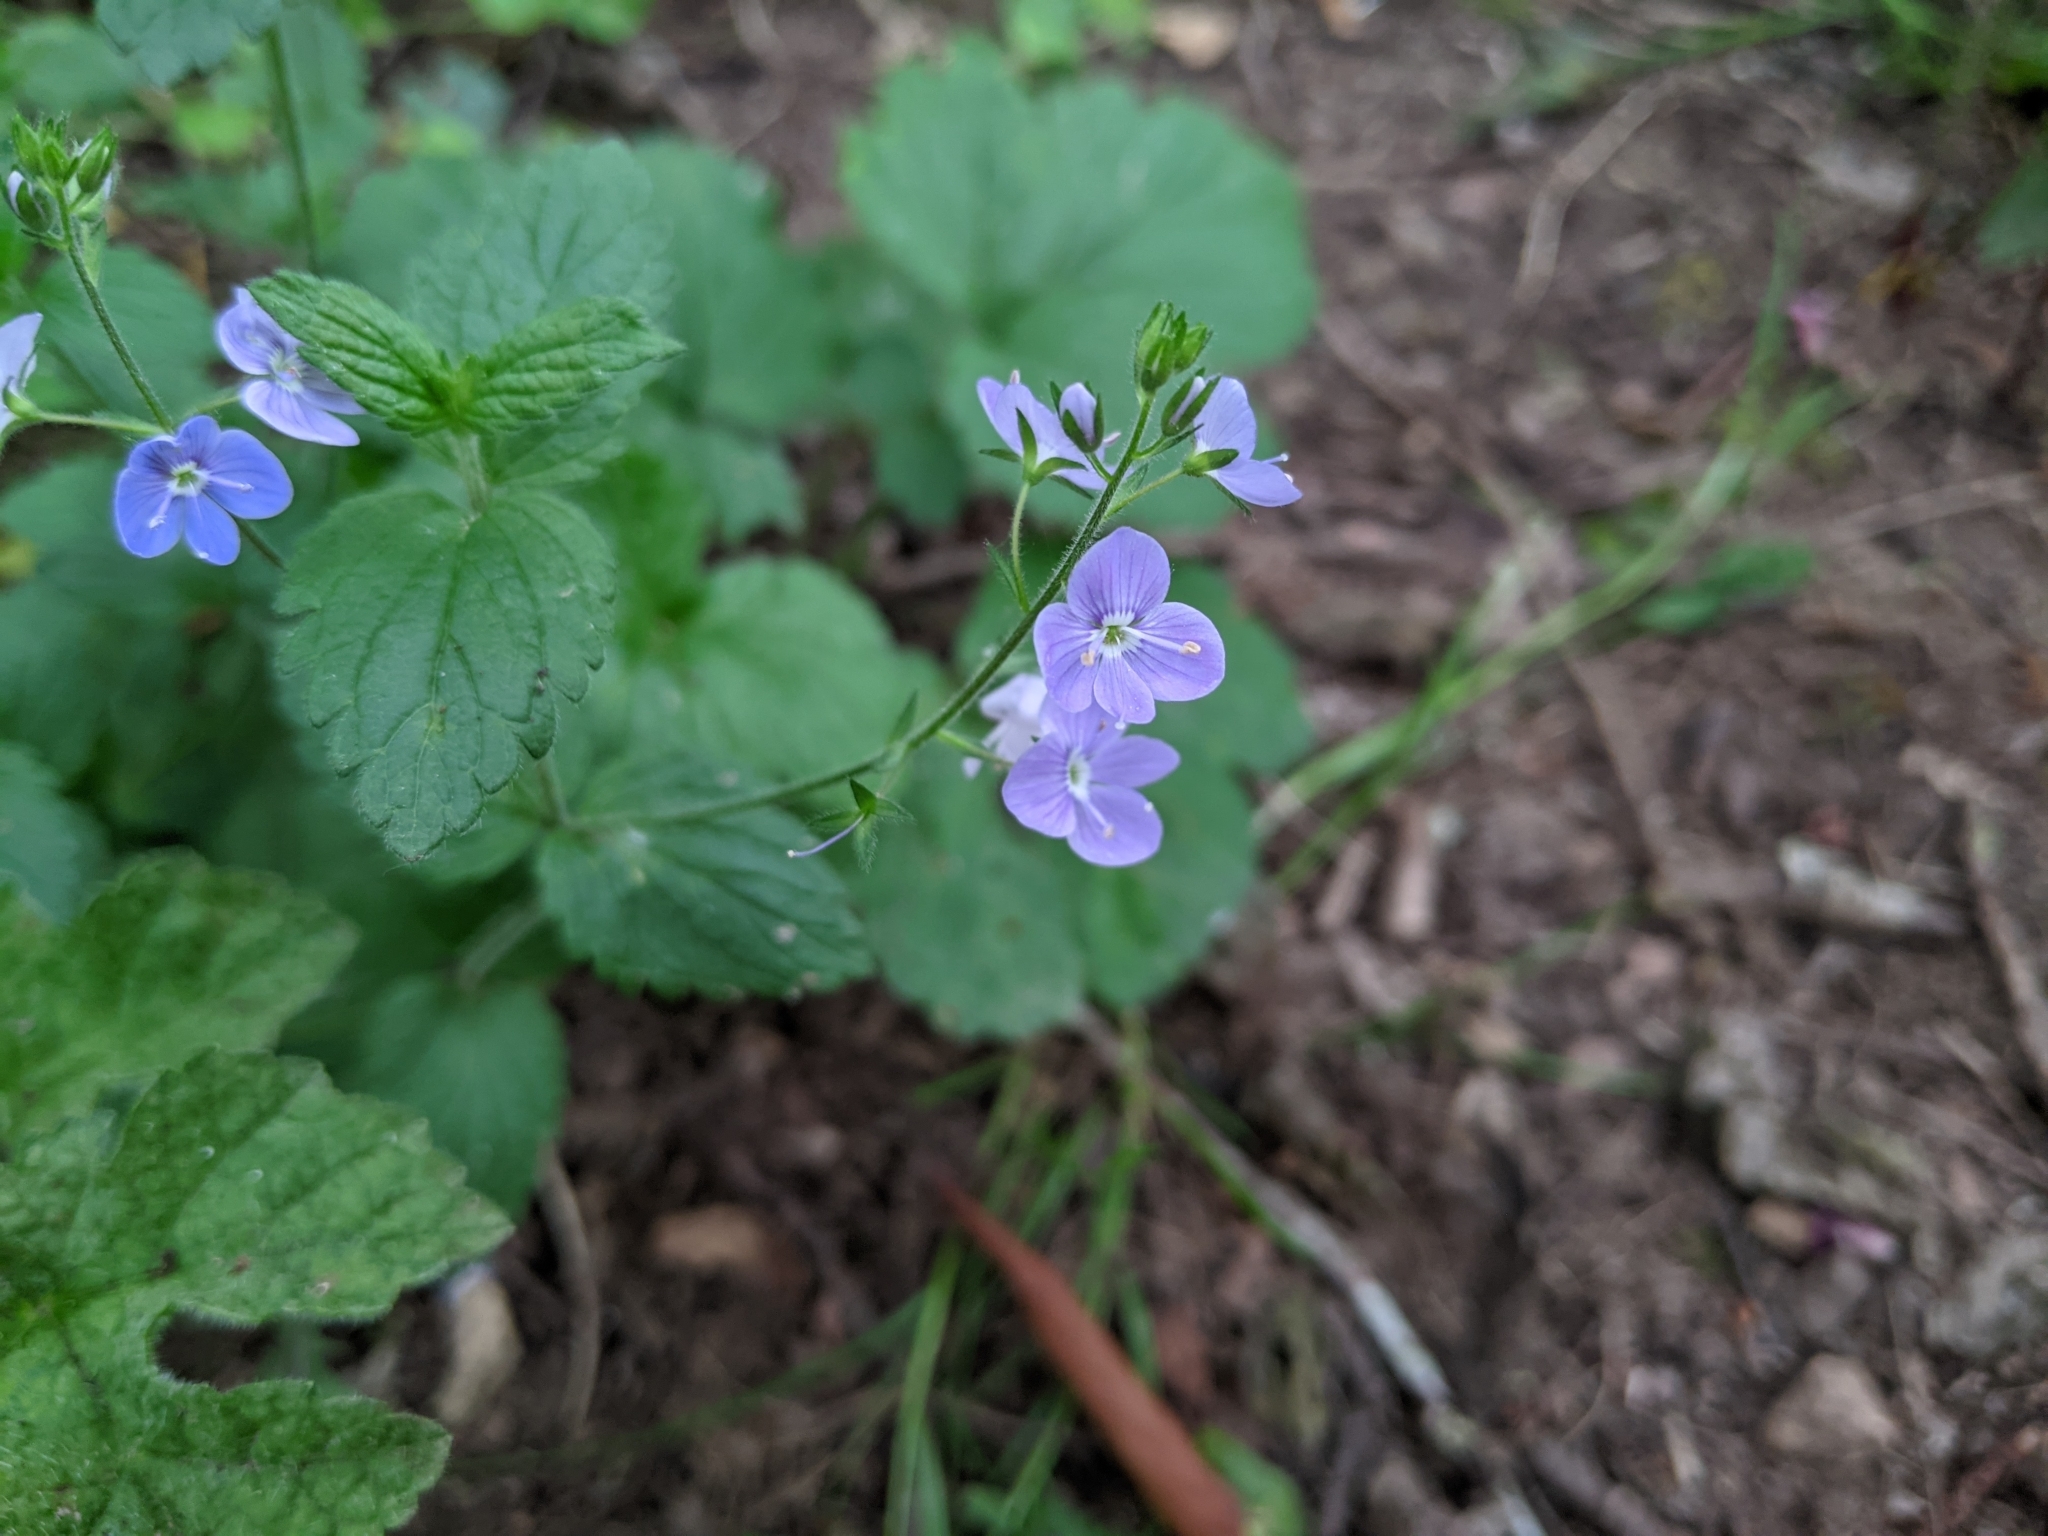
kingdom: Plantae
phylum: Tracheophyta
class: Magnoliopsida
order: Lamiales
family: Plantaginaceae
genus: Veronica
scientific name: Veronica chamaedrys
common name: Germander speedwell
